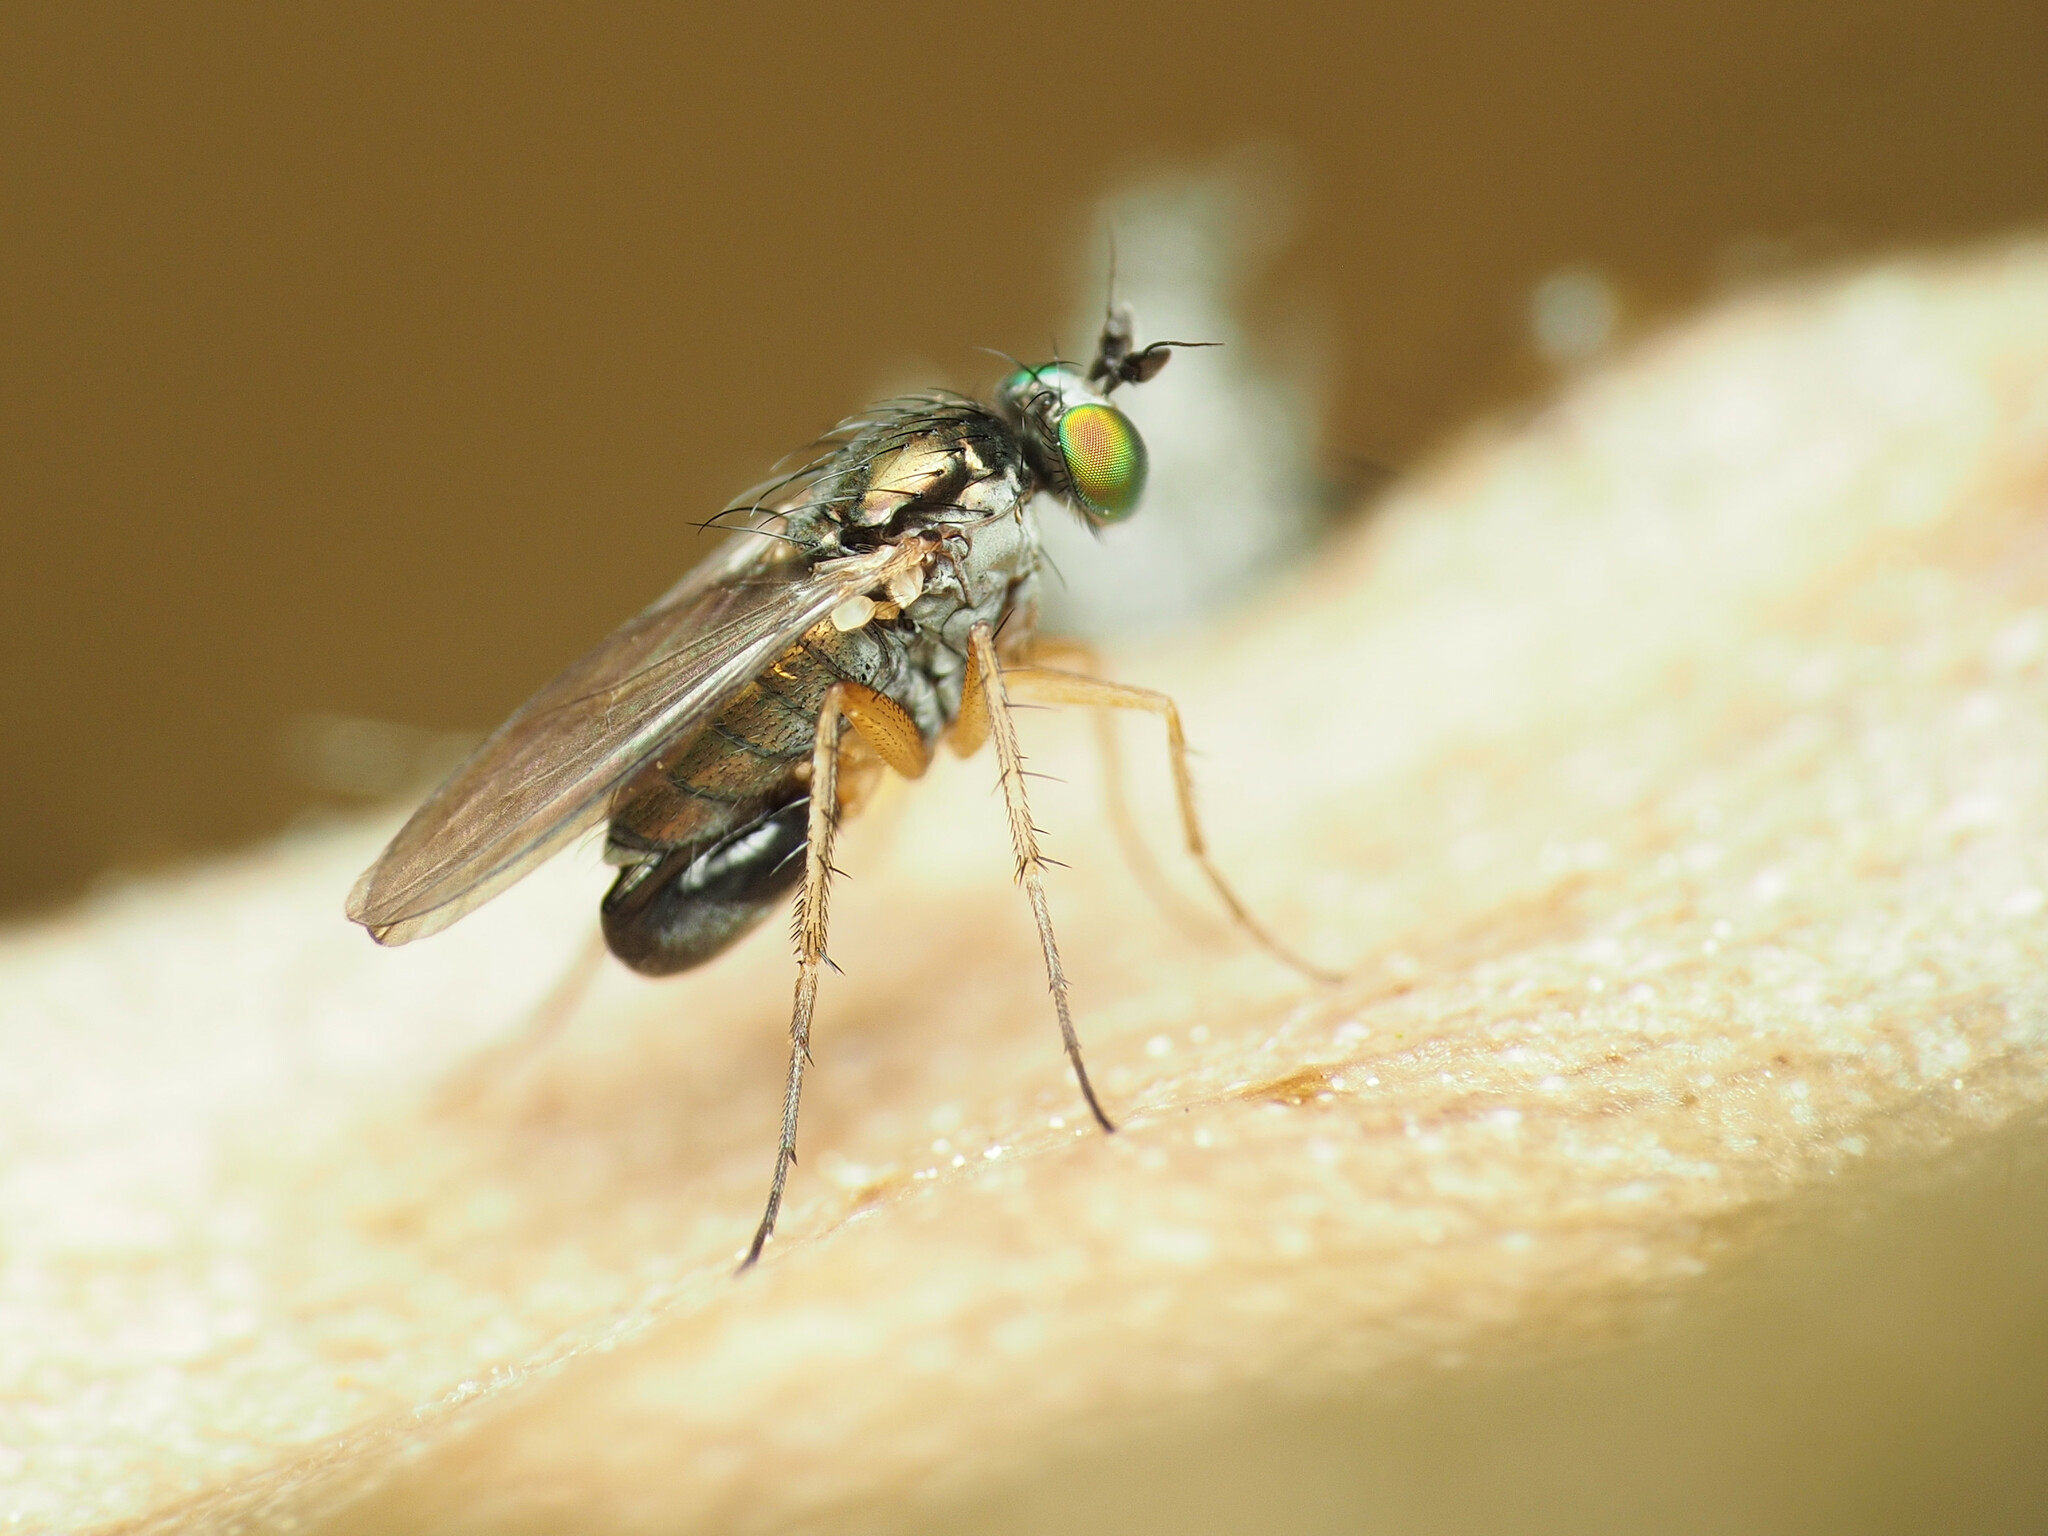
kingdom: Animalia
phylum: Arthropoda
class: Insecta
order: Diptera
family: Dolichopodidae
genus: Gymnopternus
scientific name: Gymnopternus meniscus
